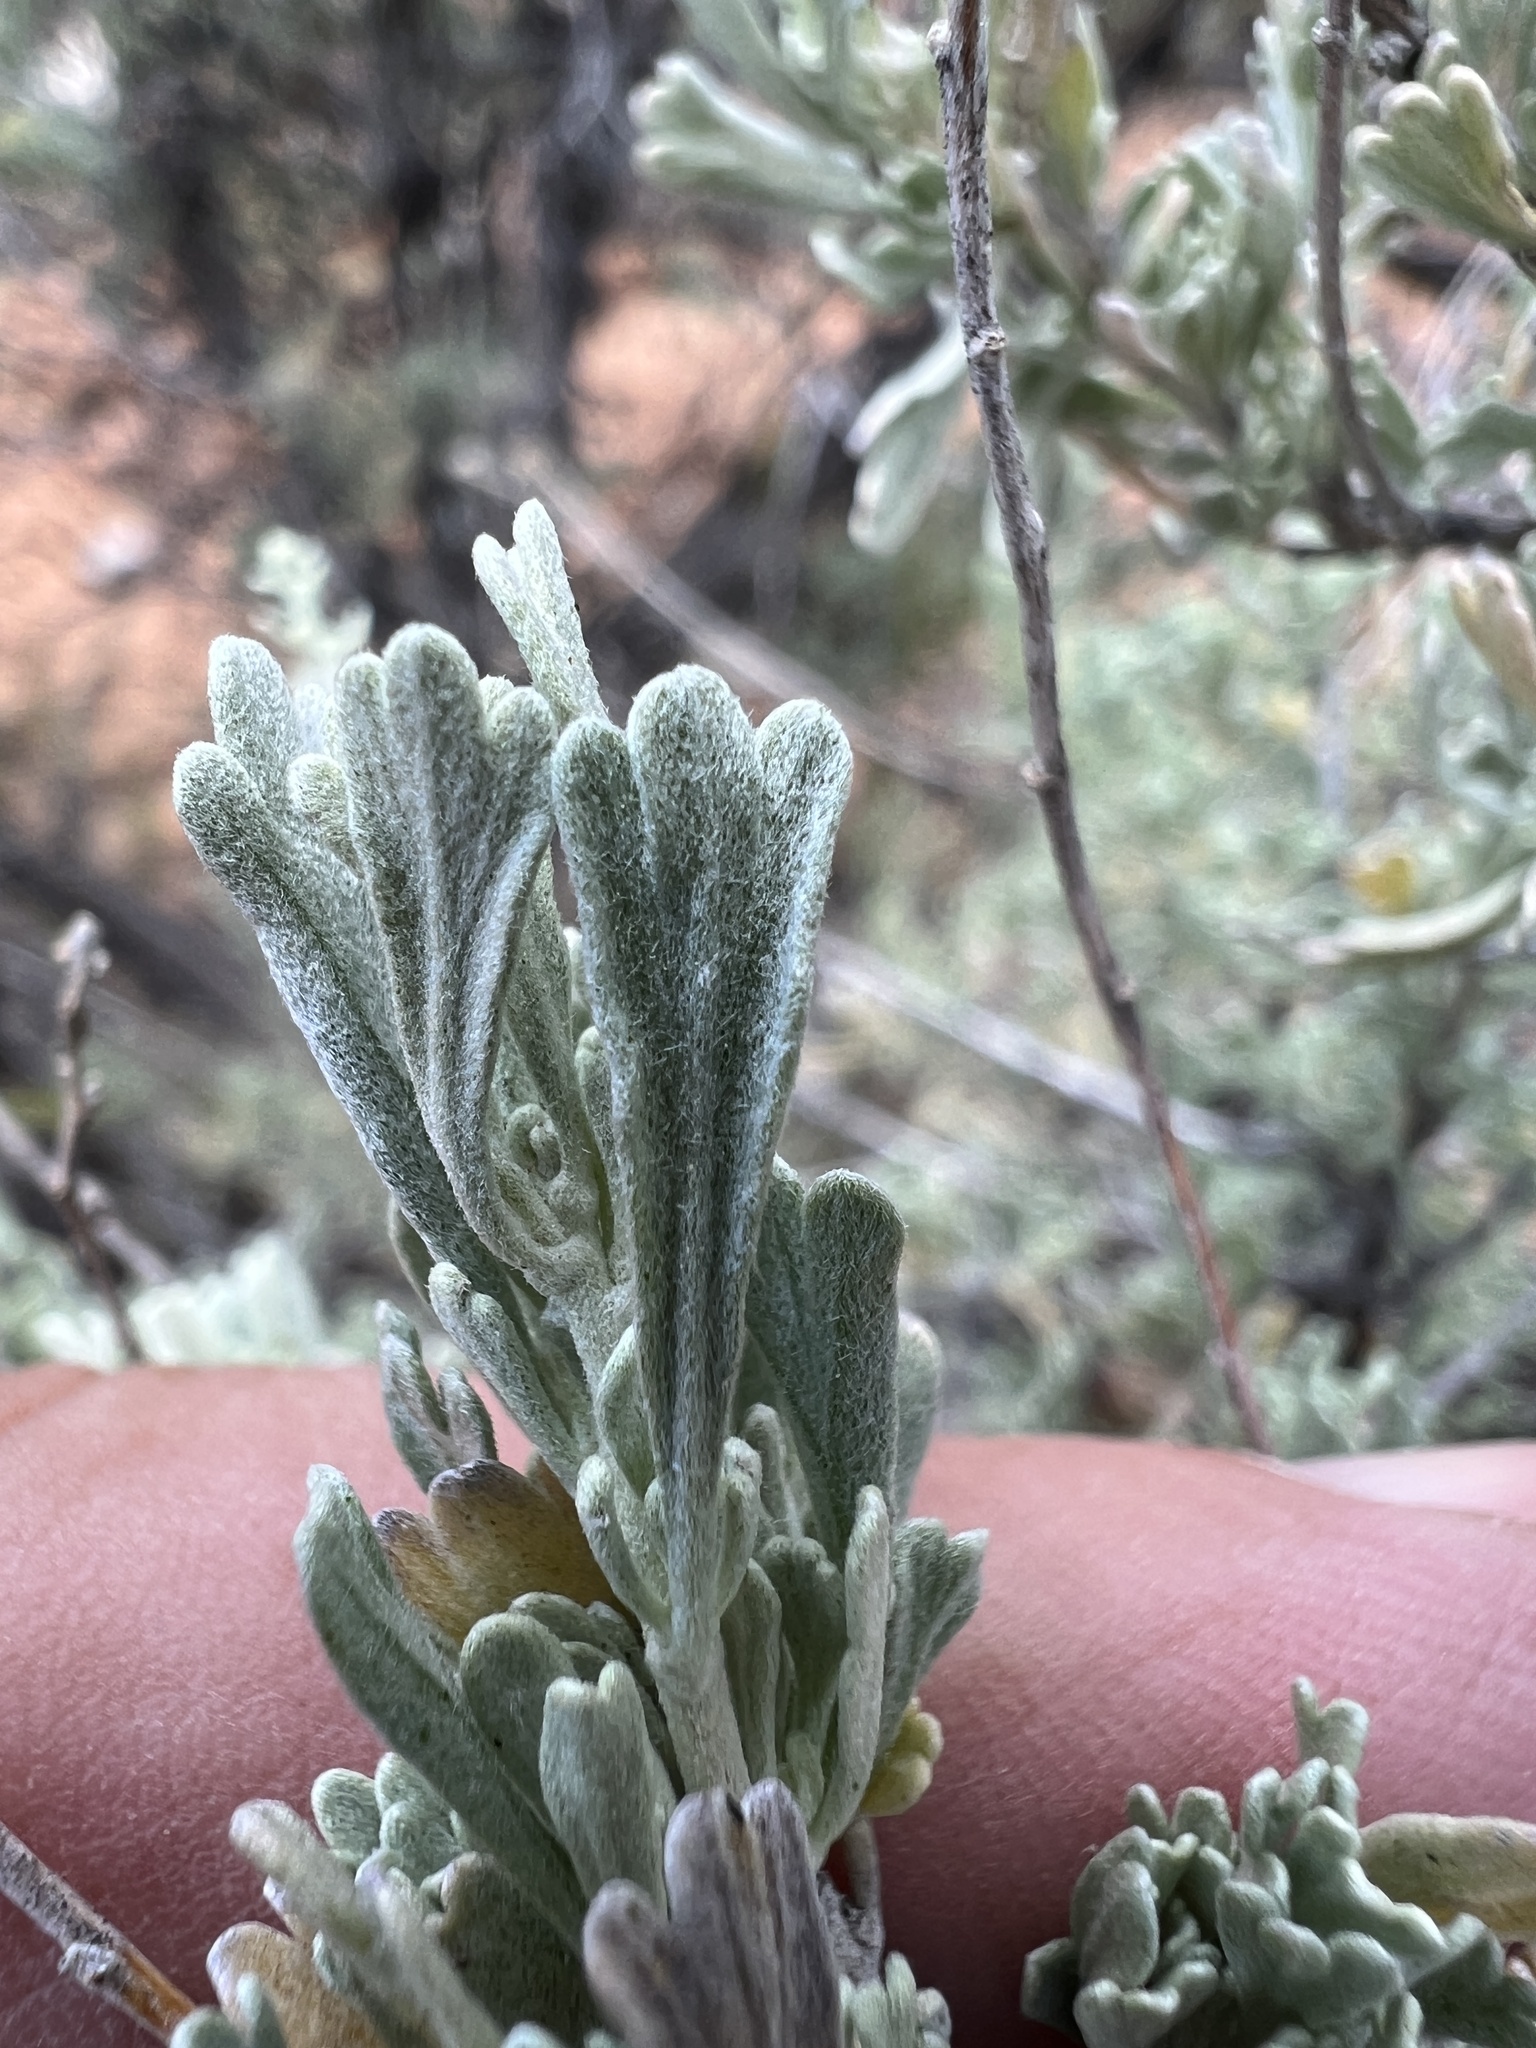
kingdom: Plantae
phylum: Tracheophyta
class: Magnoliopsida
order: Asterales
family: Asteraceae
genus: Artemisia
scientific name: Artemisia tridentata
